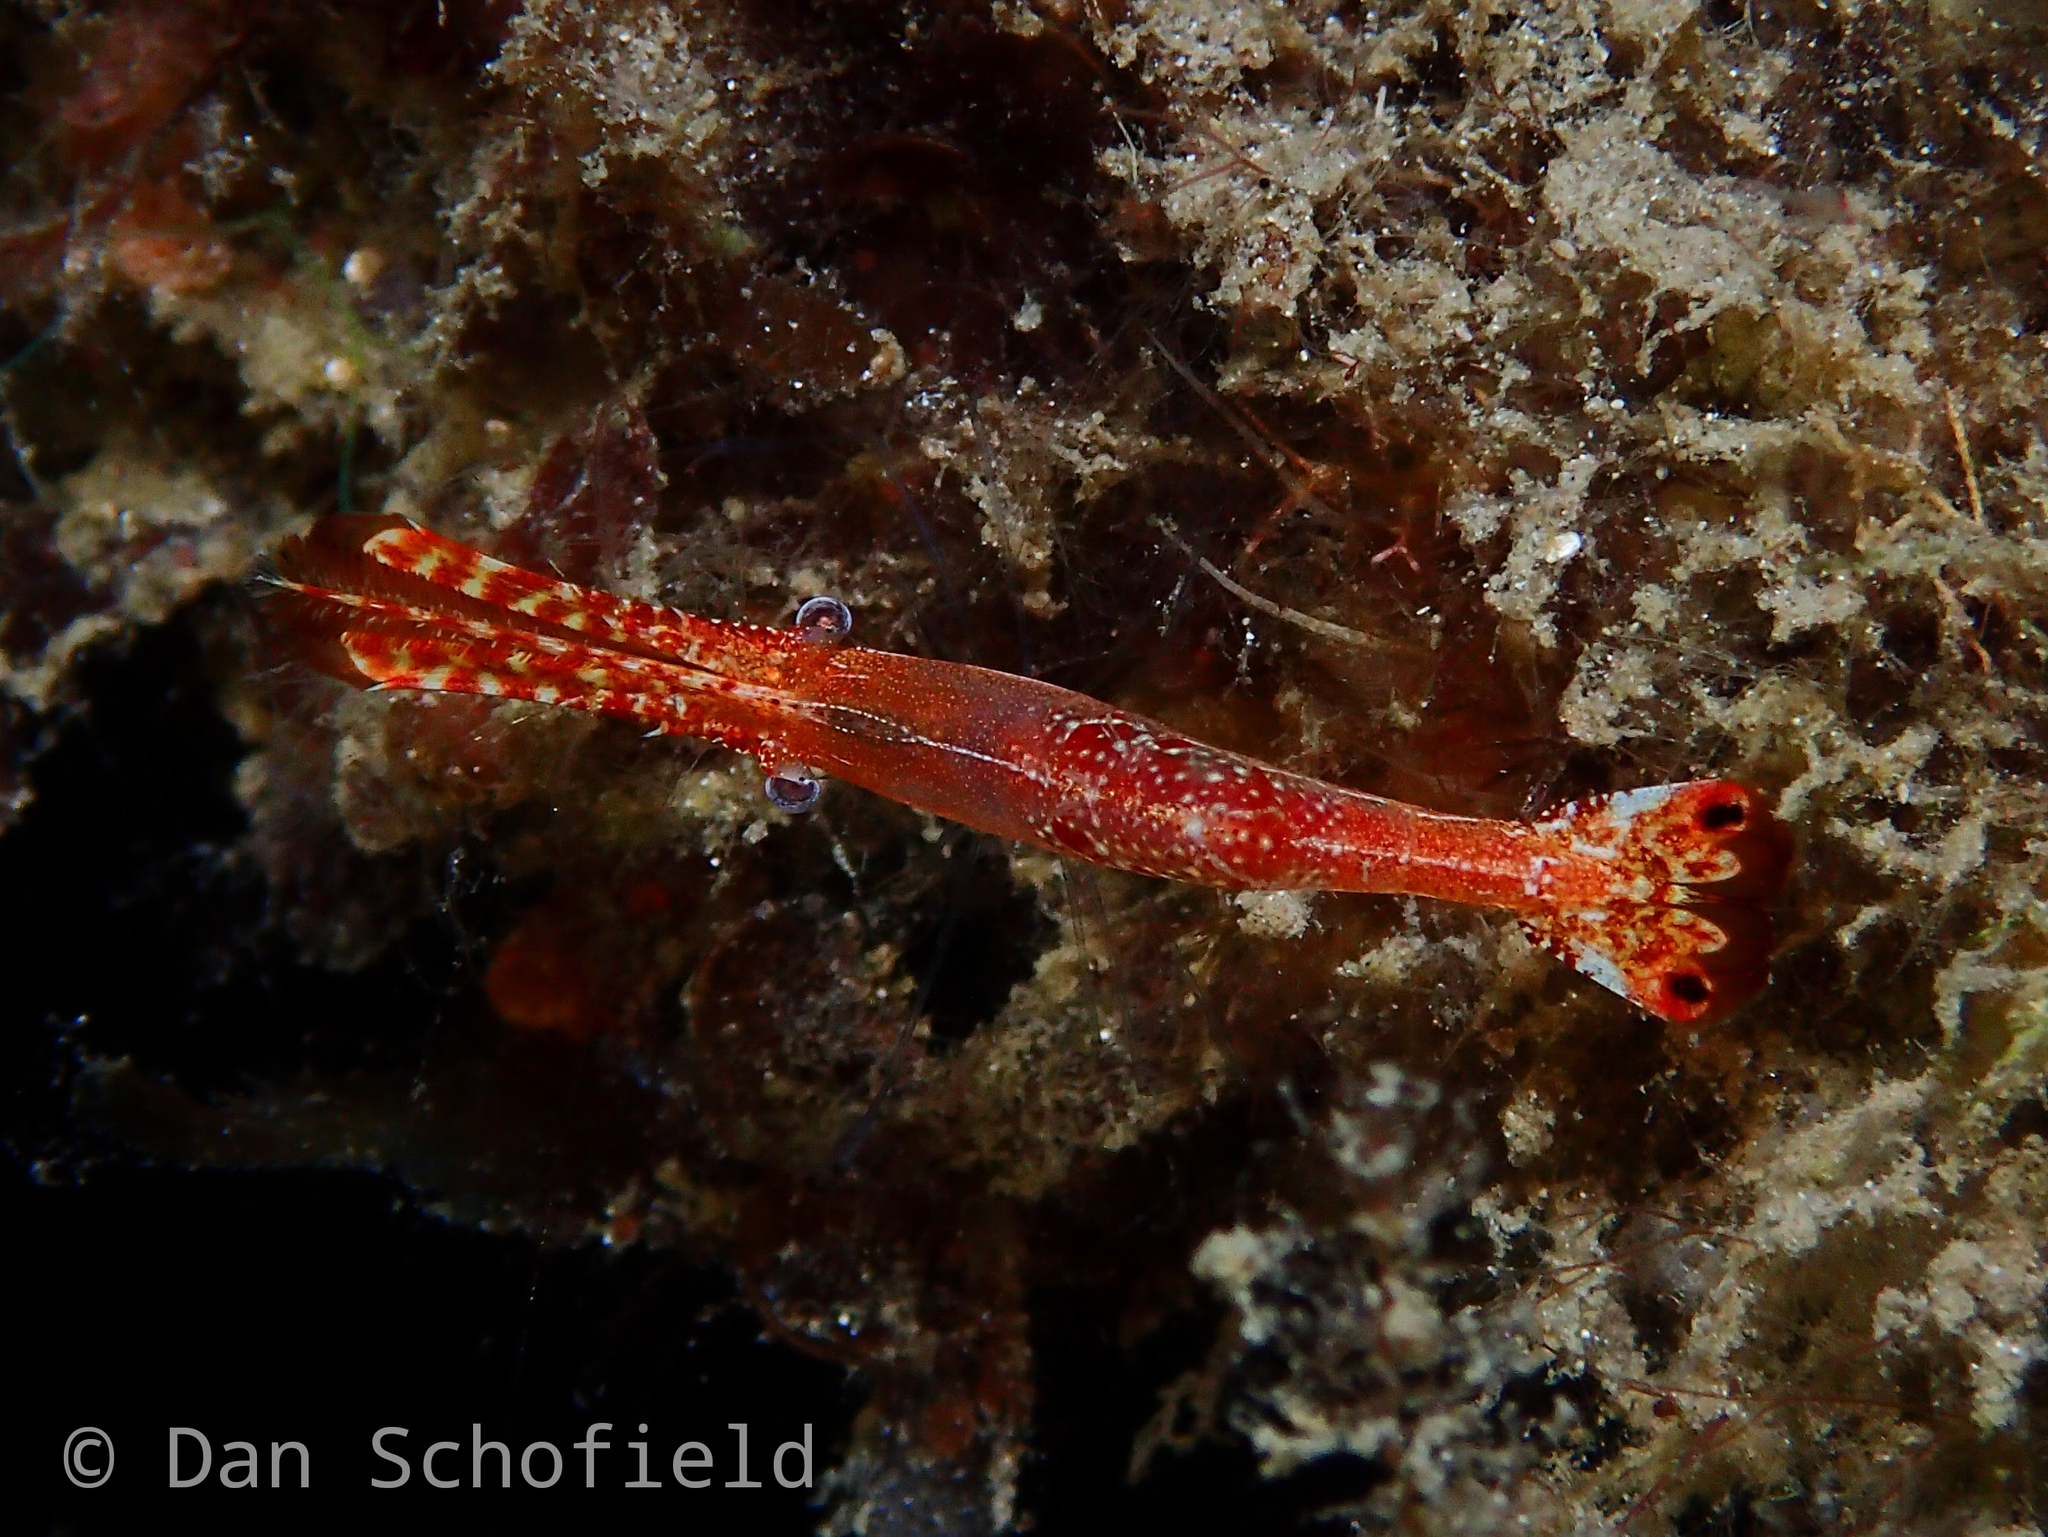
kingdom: Animalia
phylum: Arthropoda
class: Malacostraca
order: Decapoda
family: Palaemonidae
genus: Leander
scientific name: Leander plumosus
